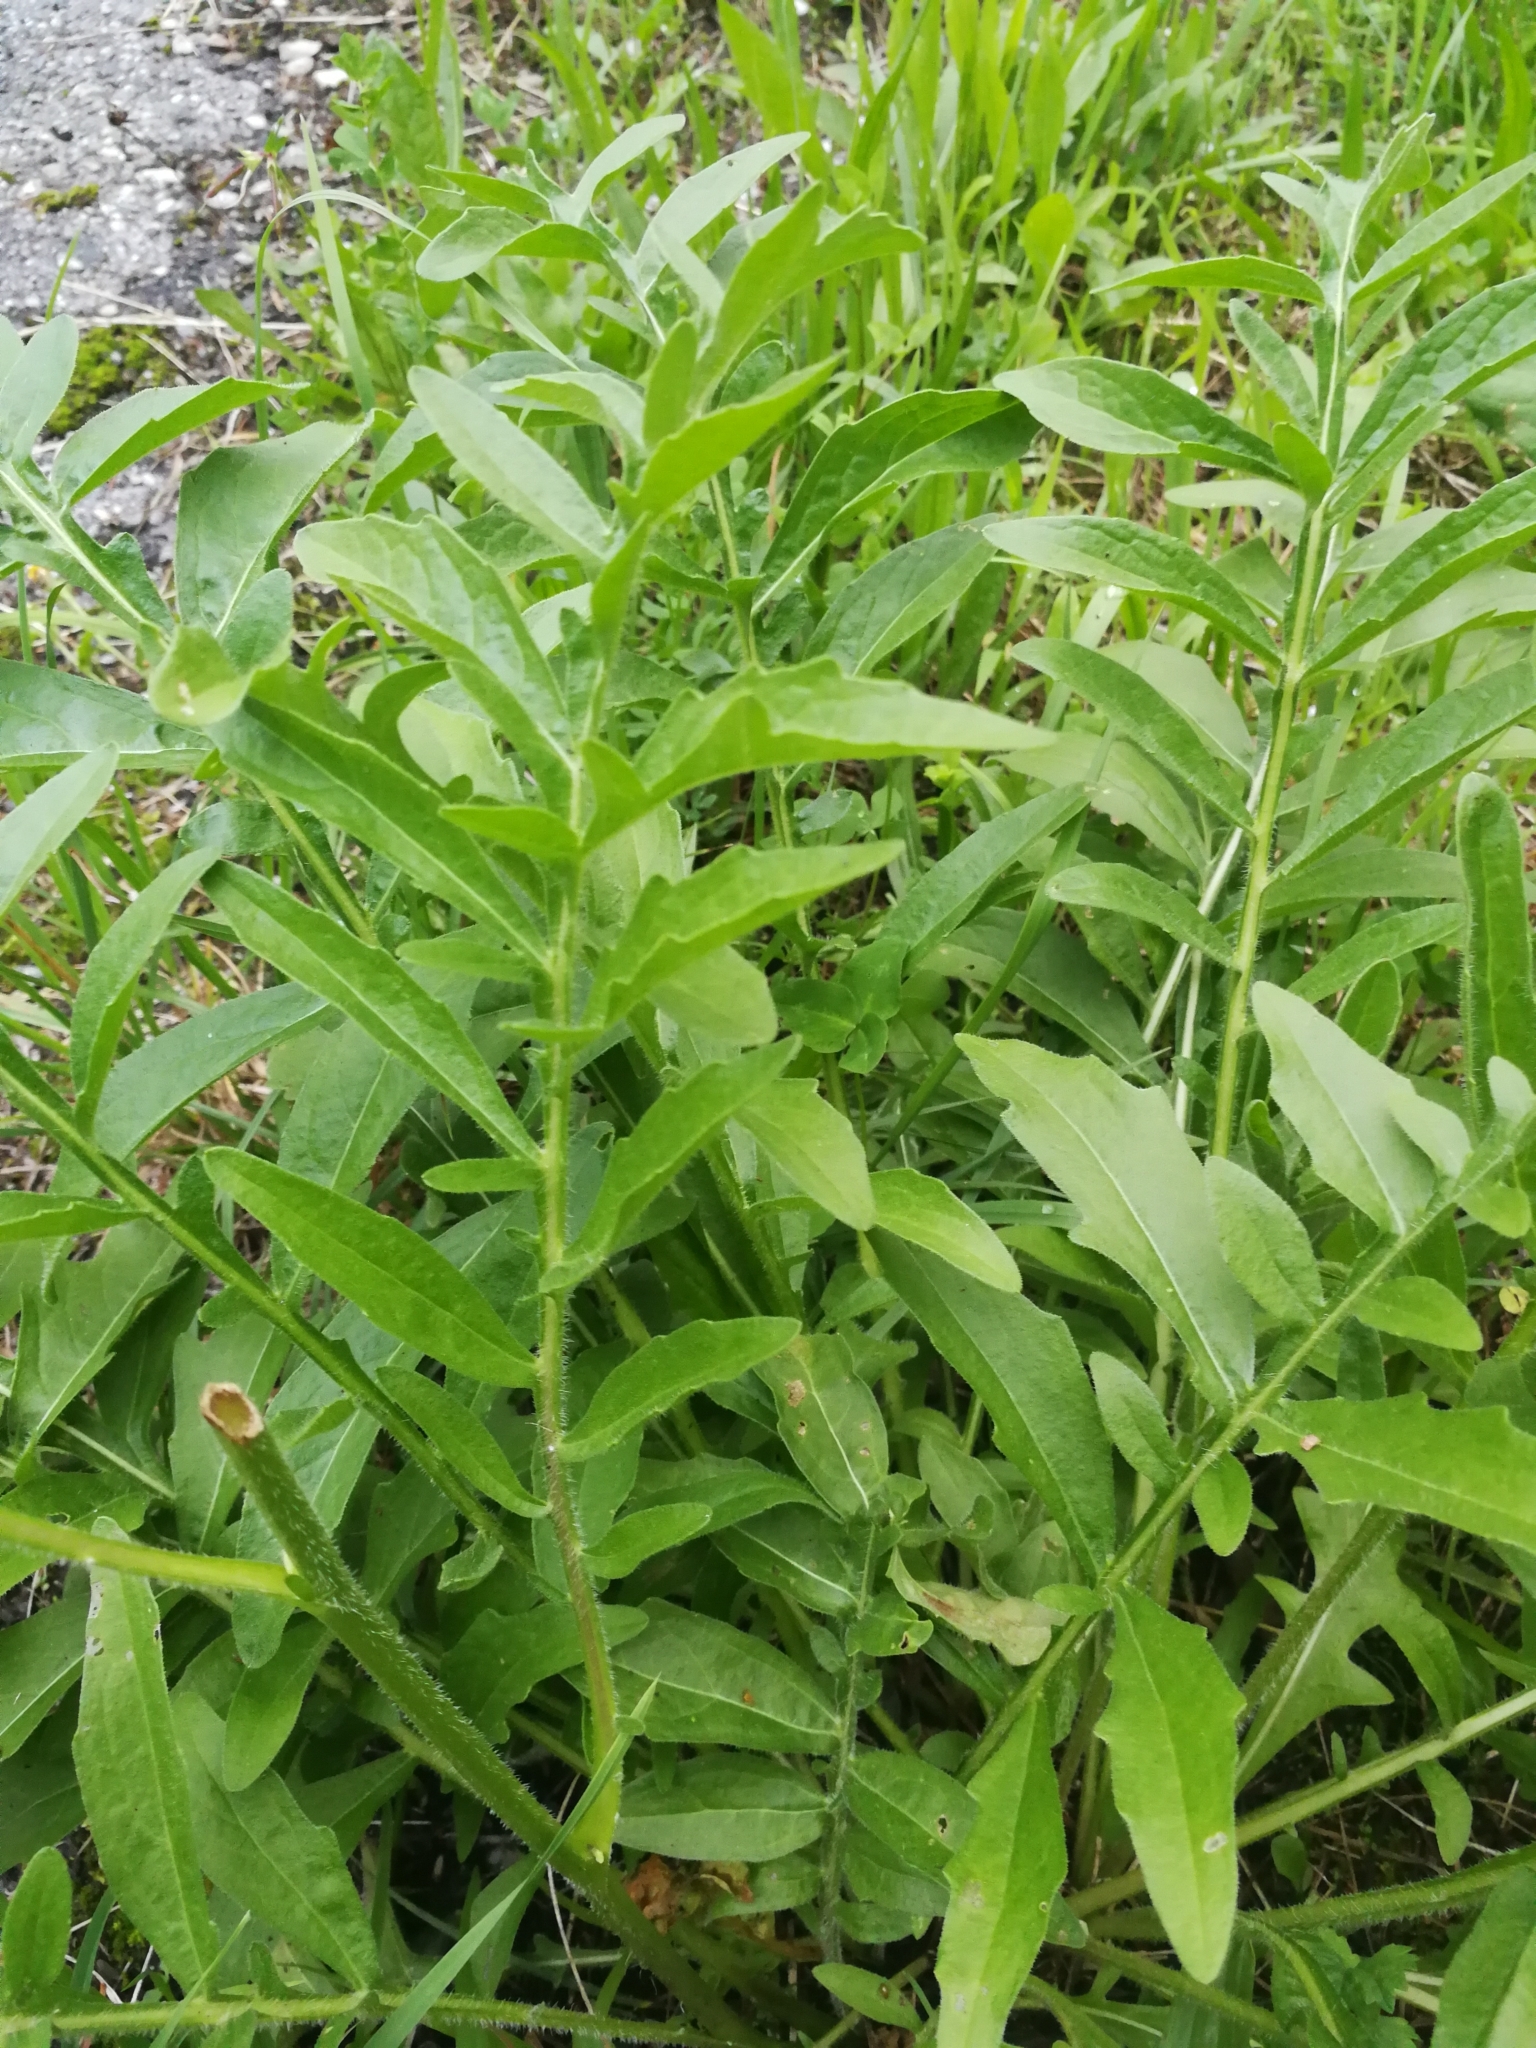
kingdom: Plantae
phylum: Tracheophyta
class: Magnoliopsida
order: Asterales
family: Asteraceae
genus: Centaurea
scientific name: Centaurea scabiosa
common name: Greater knapweed
